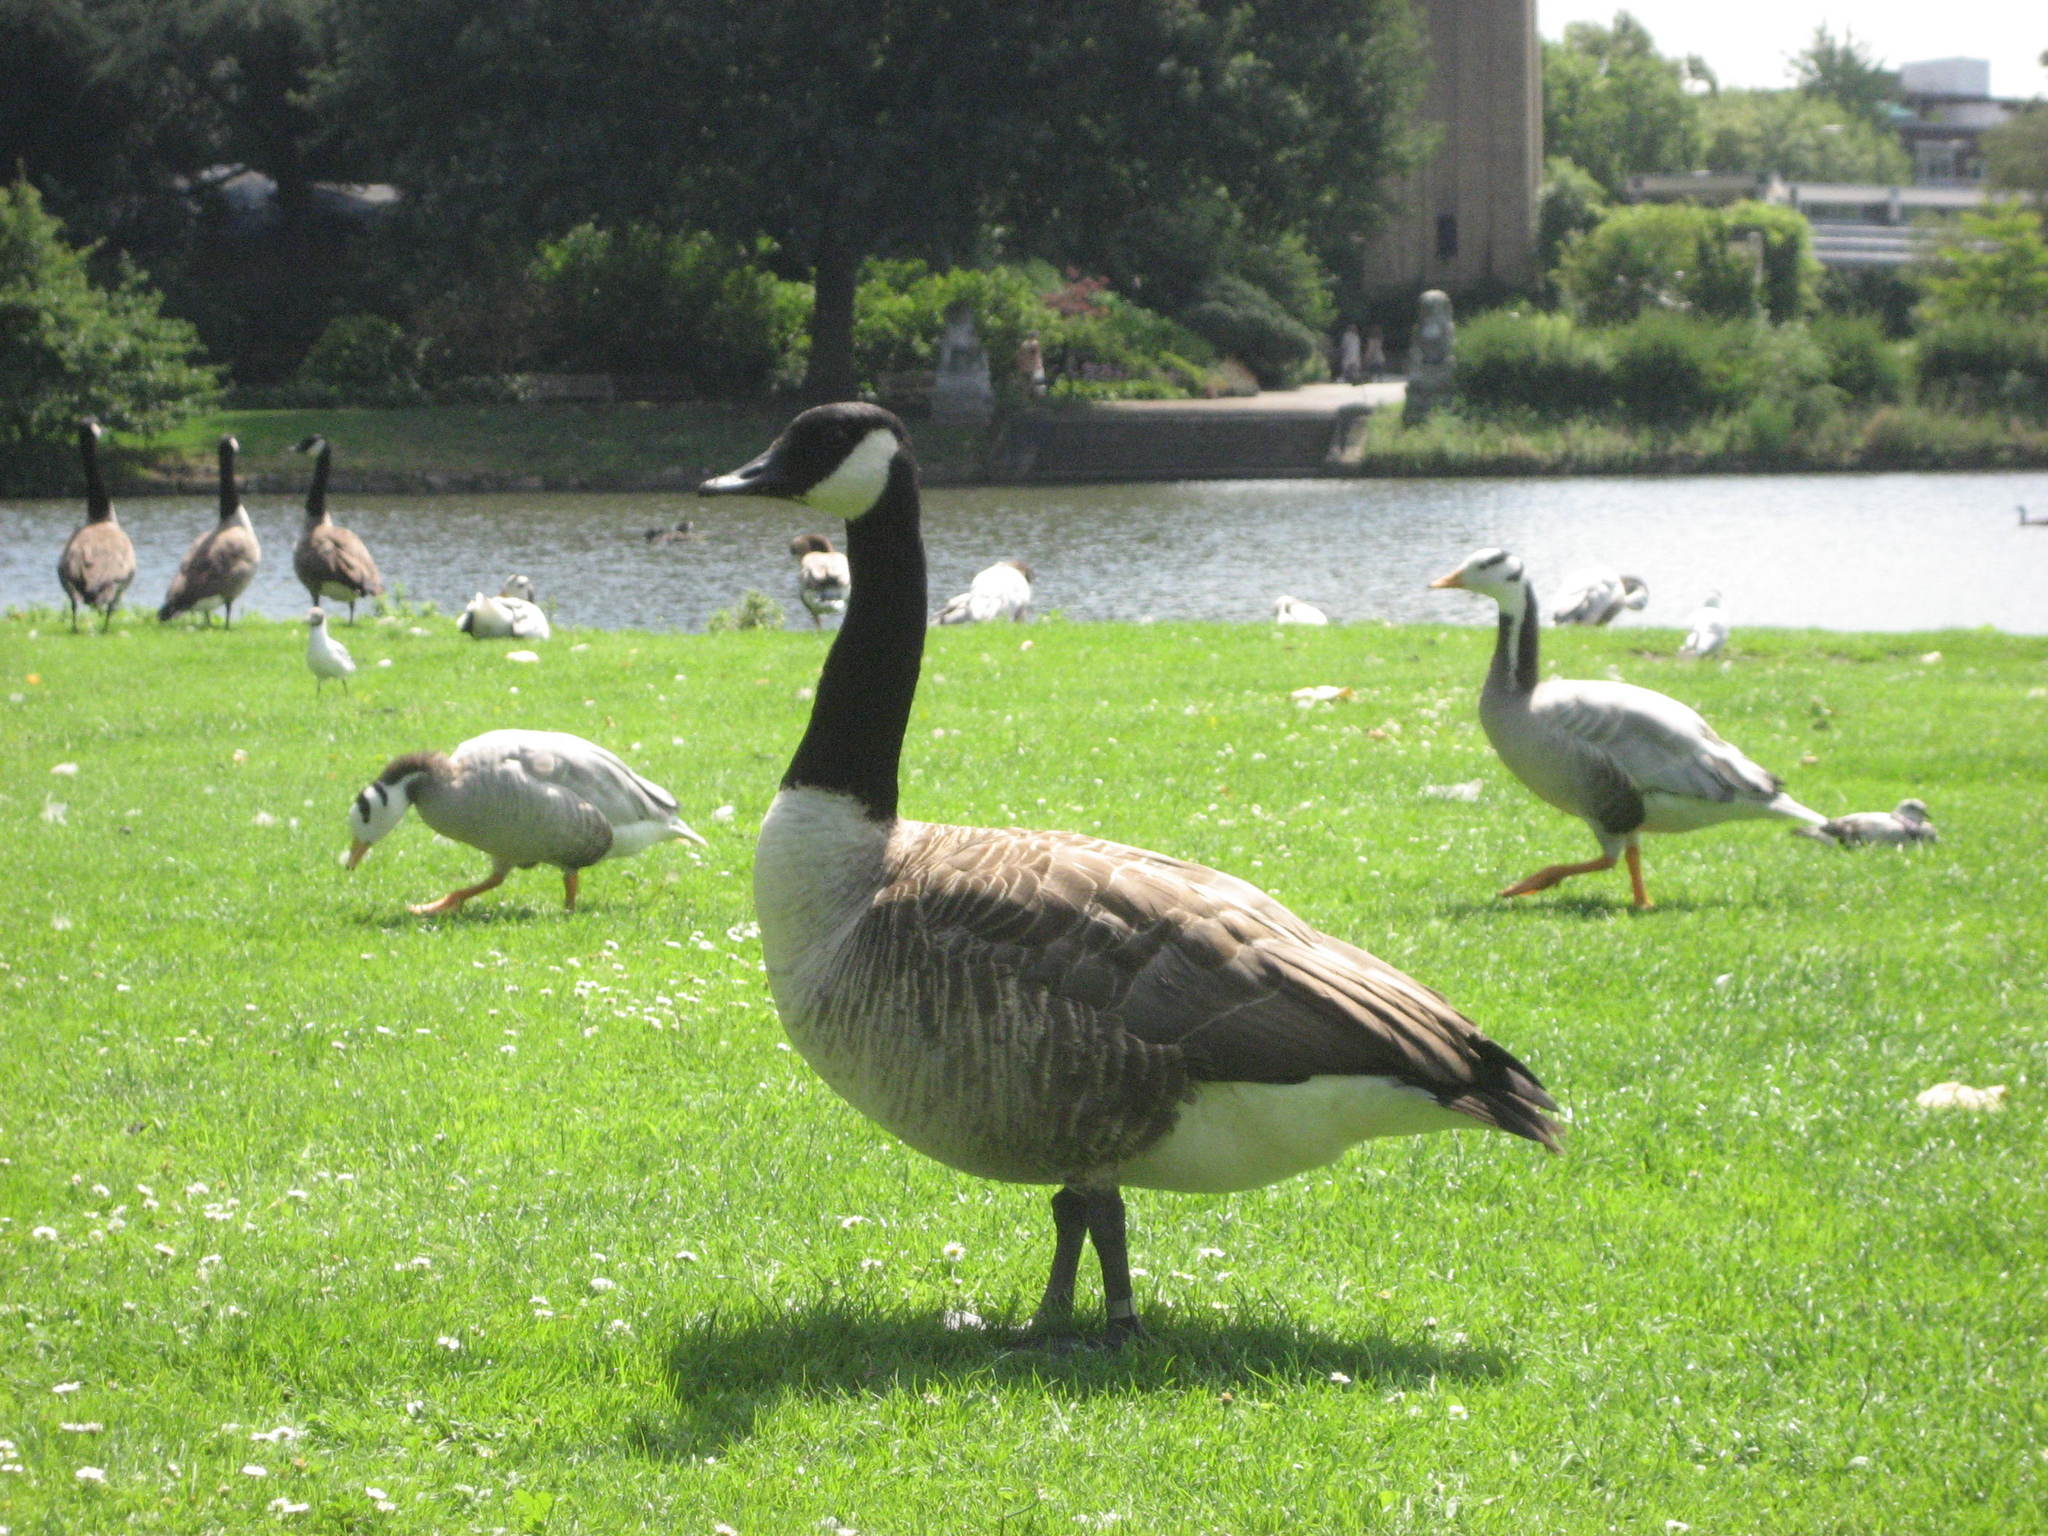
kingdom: Animalia
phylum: Chordata
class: Aves
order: Anseriformes
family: Anatidae
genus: Branta
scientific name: Branta canadensis
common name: Canada goose
